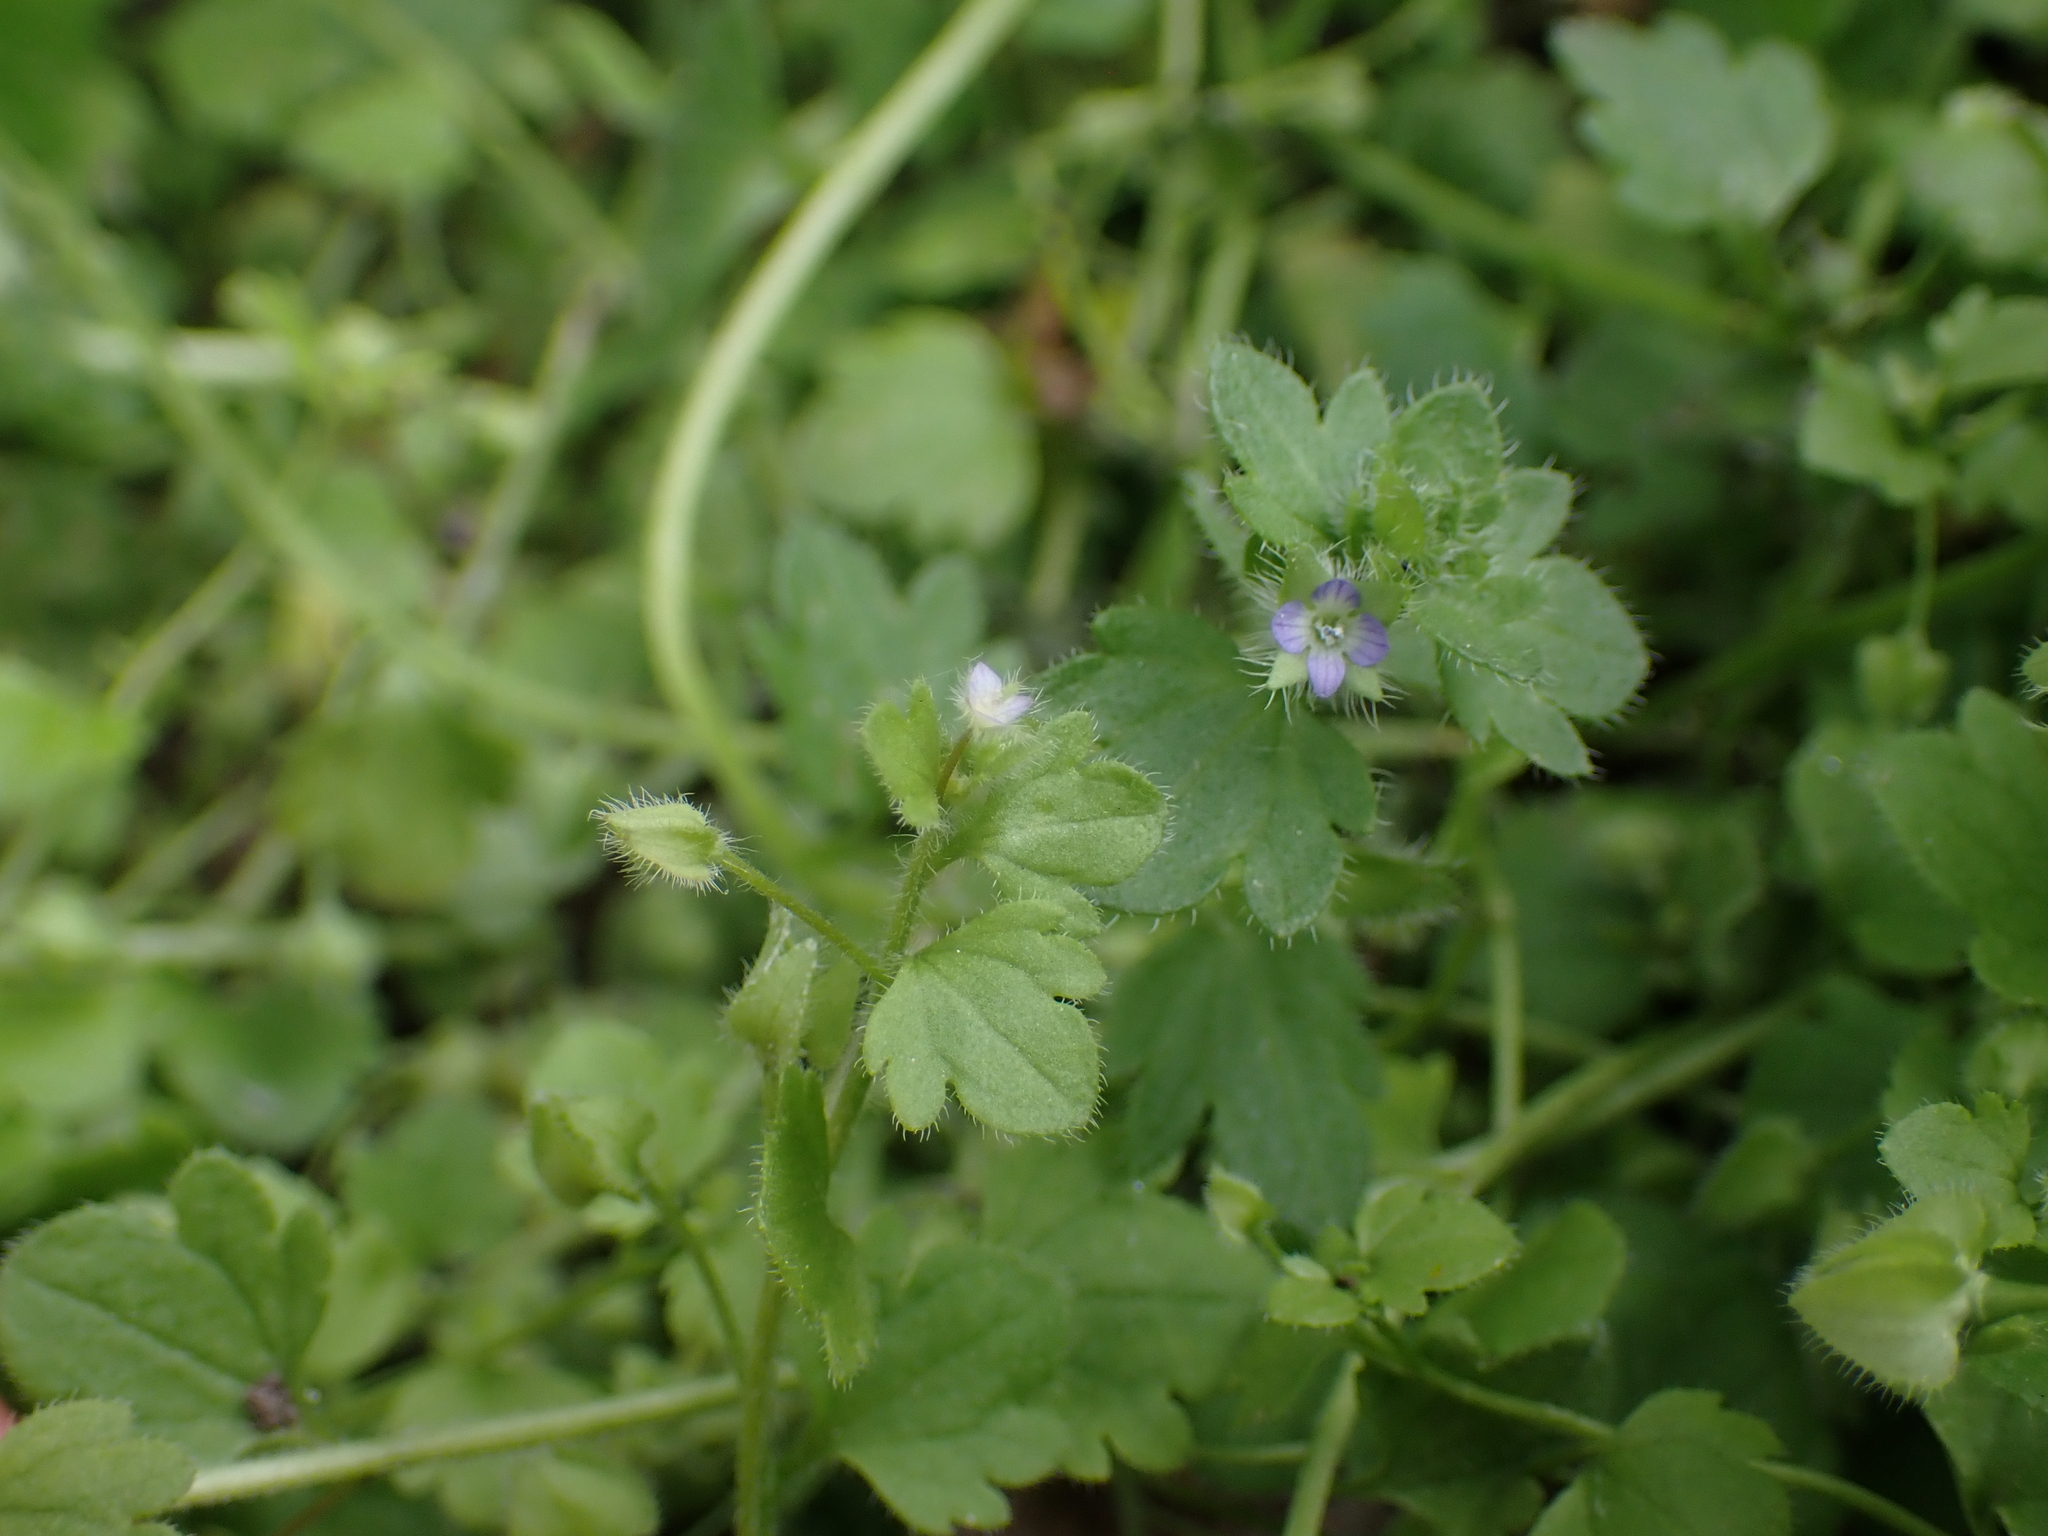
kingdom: Plantae
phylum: Tracheophyta
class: Magnoliopsida
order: Lamiales
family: Plantaginaceae
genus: Veronica
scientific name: Veronica sublobata
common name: False ivy-leaved speedwell
